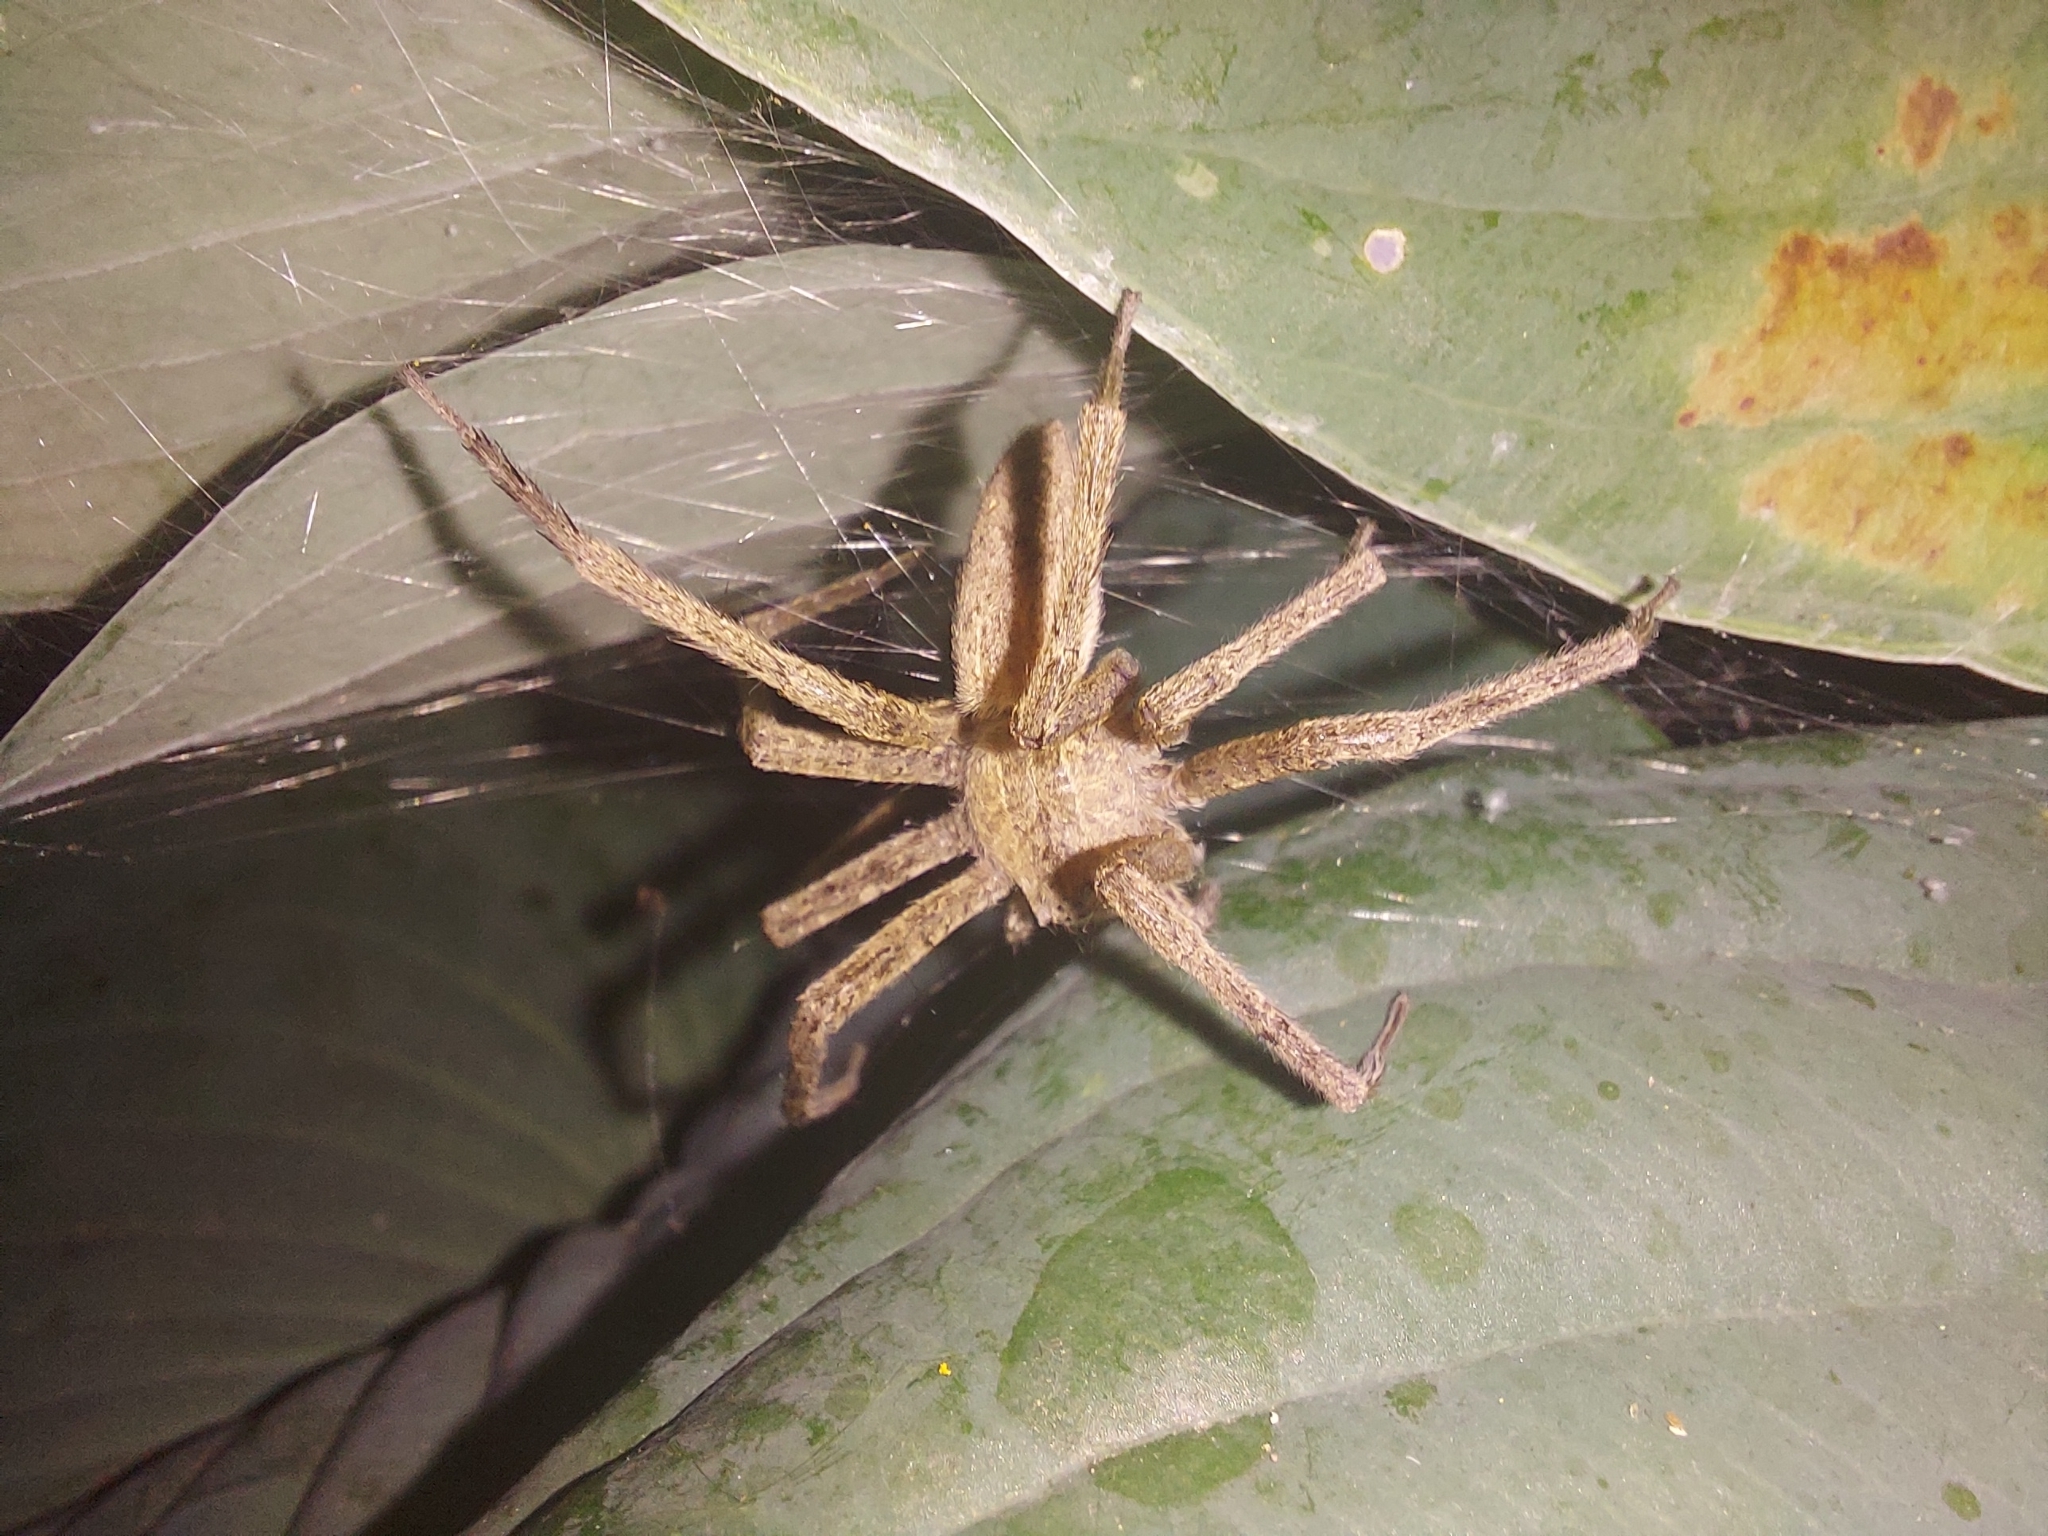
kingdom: Animalia
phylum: Arthropoda
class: Arachnida
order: Araneae
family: Pisauridae
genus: Pisaurina
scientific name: Pisaurina mira
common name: American nursery web spider
